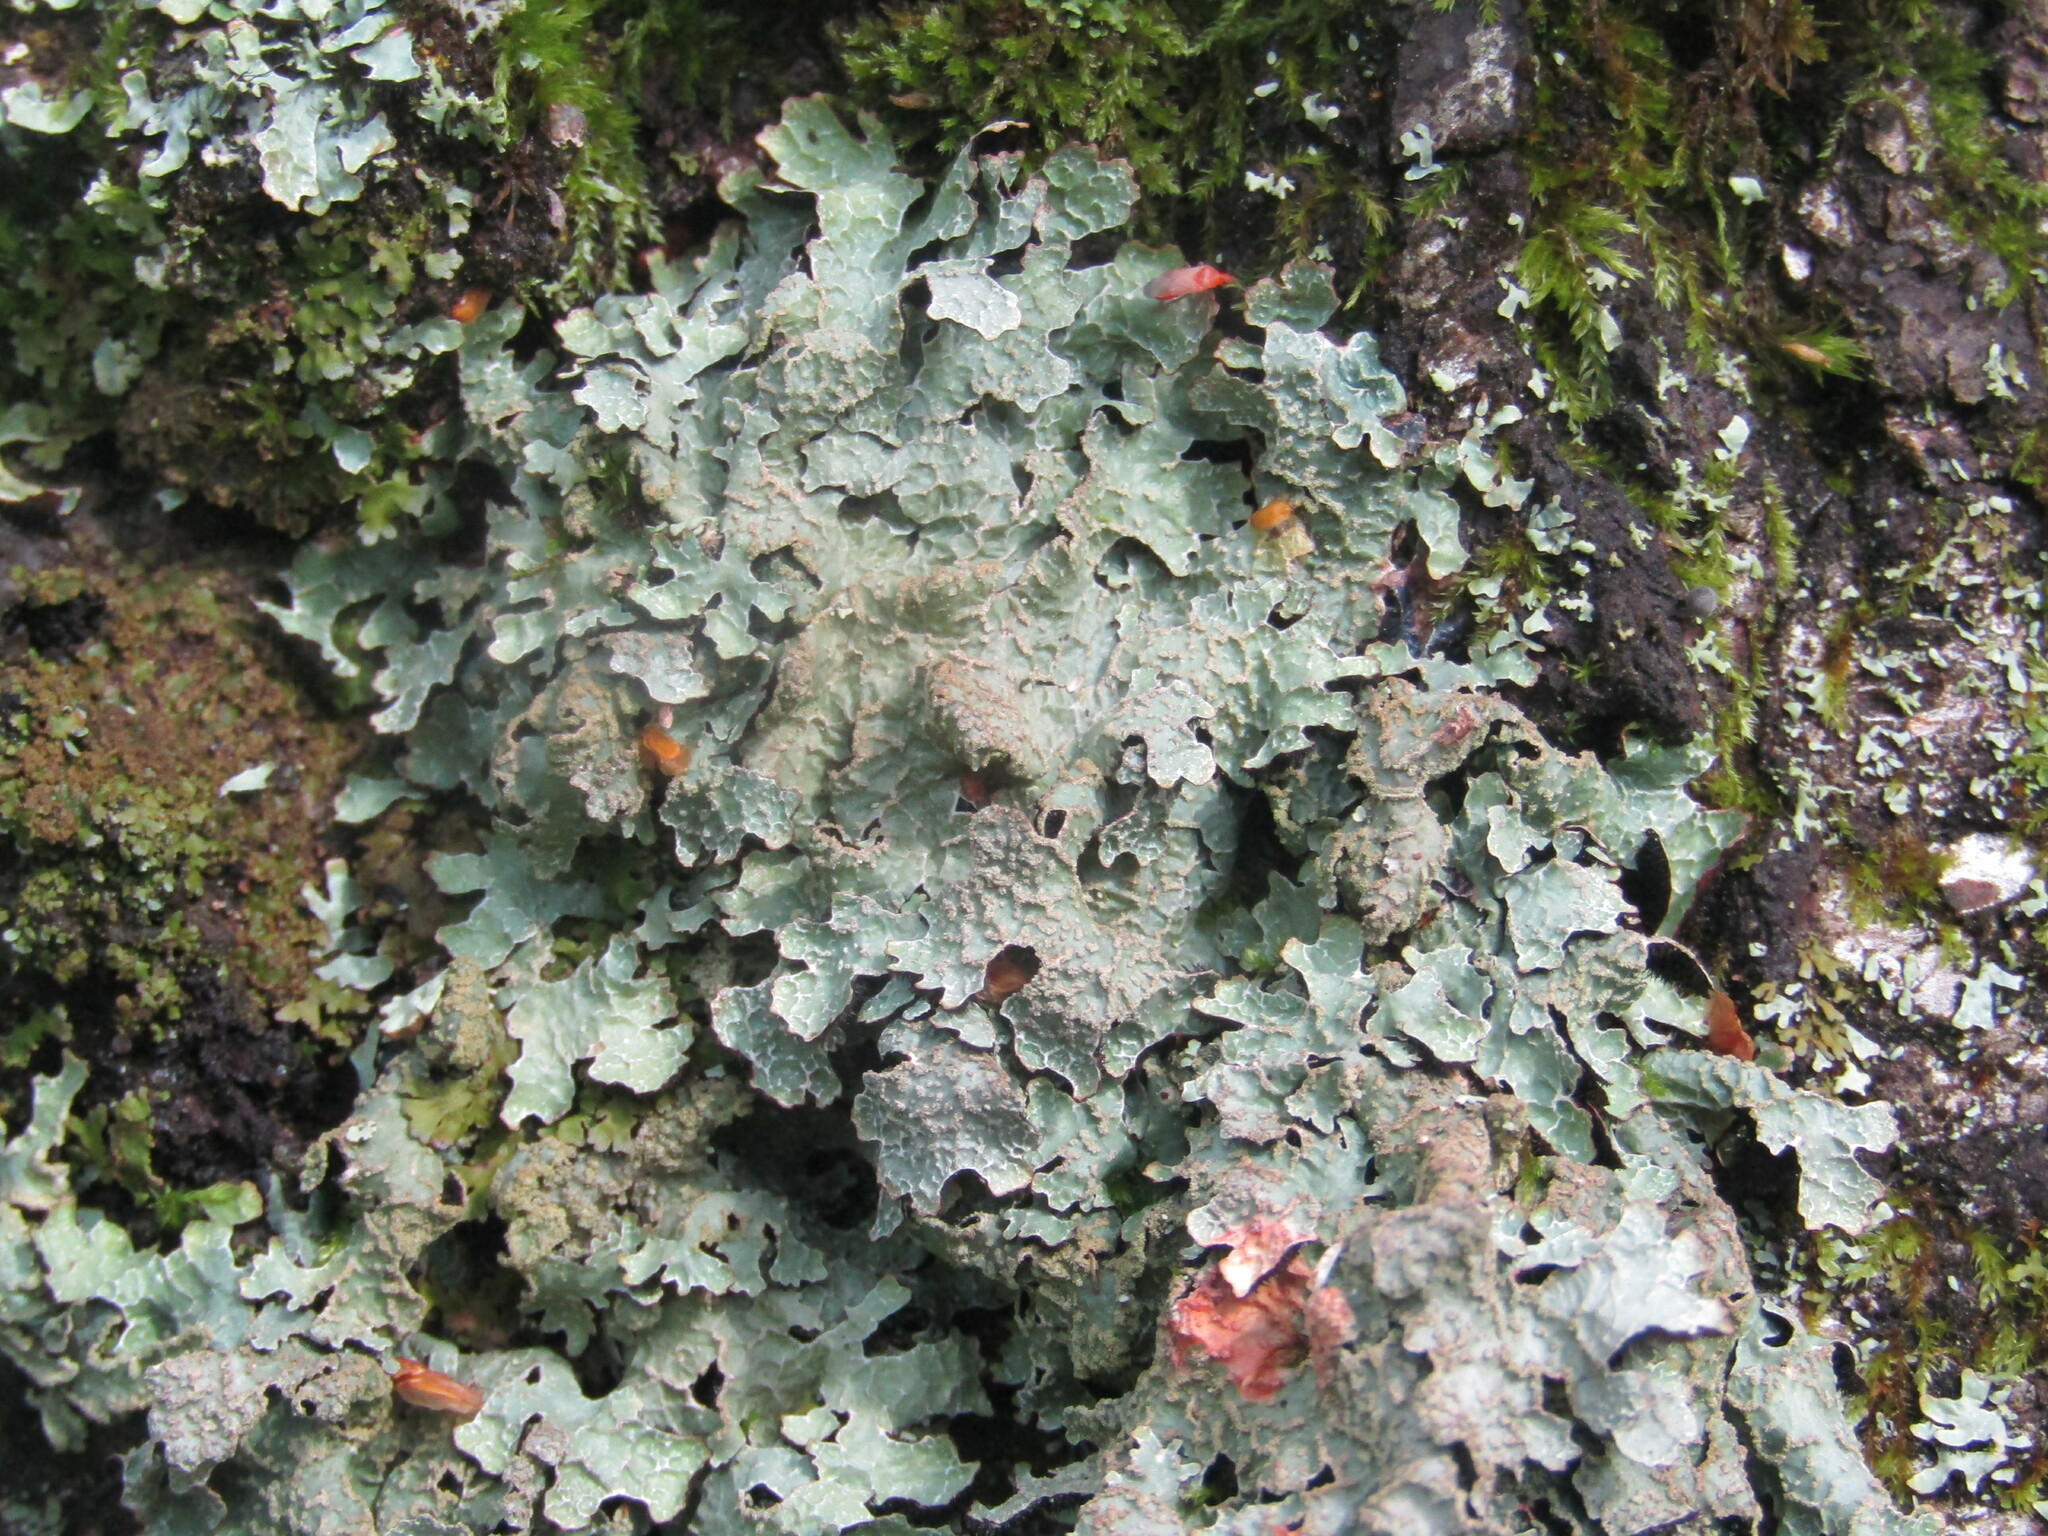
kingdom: Fungi
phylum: Ascomycota
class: Lecanoromycetes
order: Lecanorales
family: Parmeliaceae
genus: Parmelia
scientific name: Parmelia sulcata
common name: Netted shield lichen
